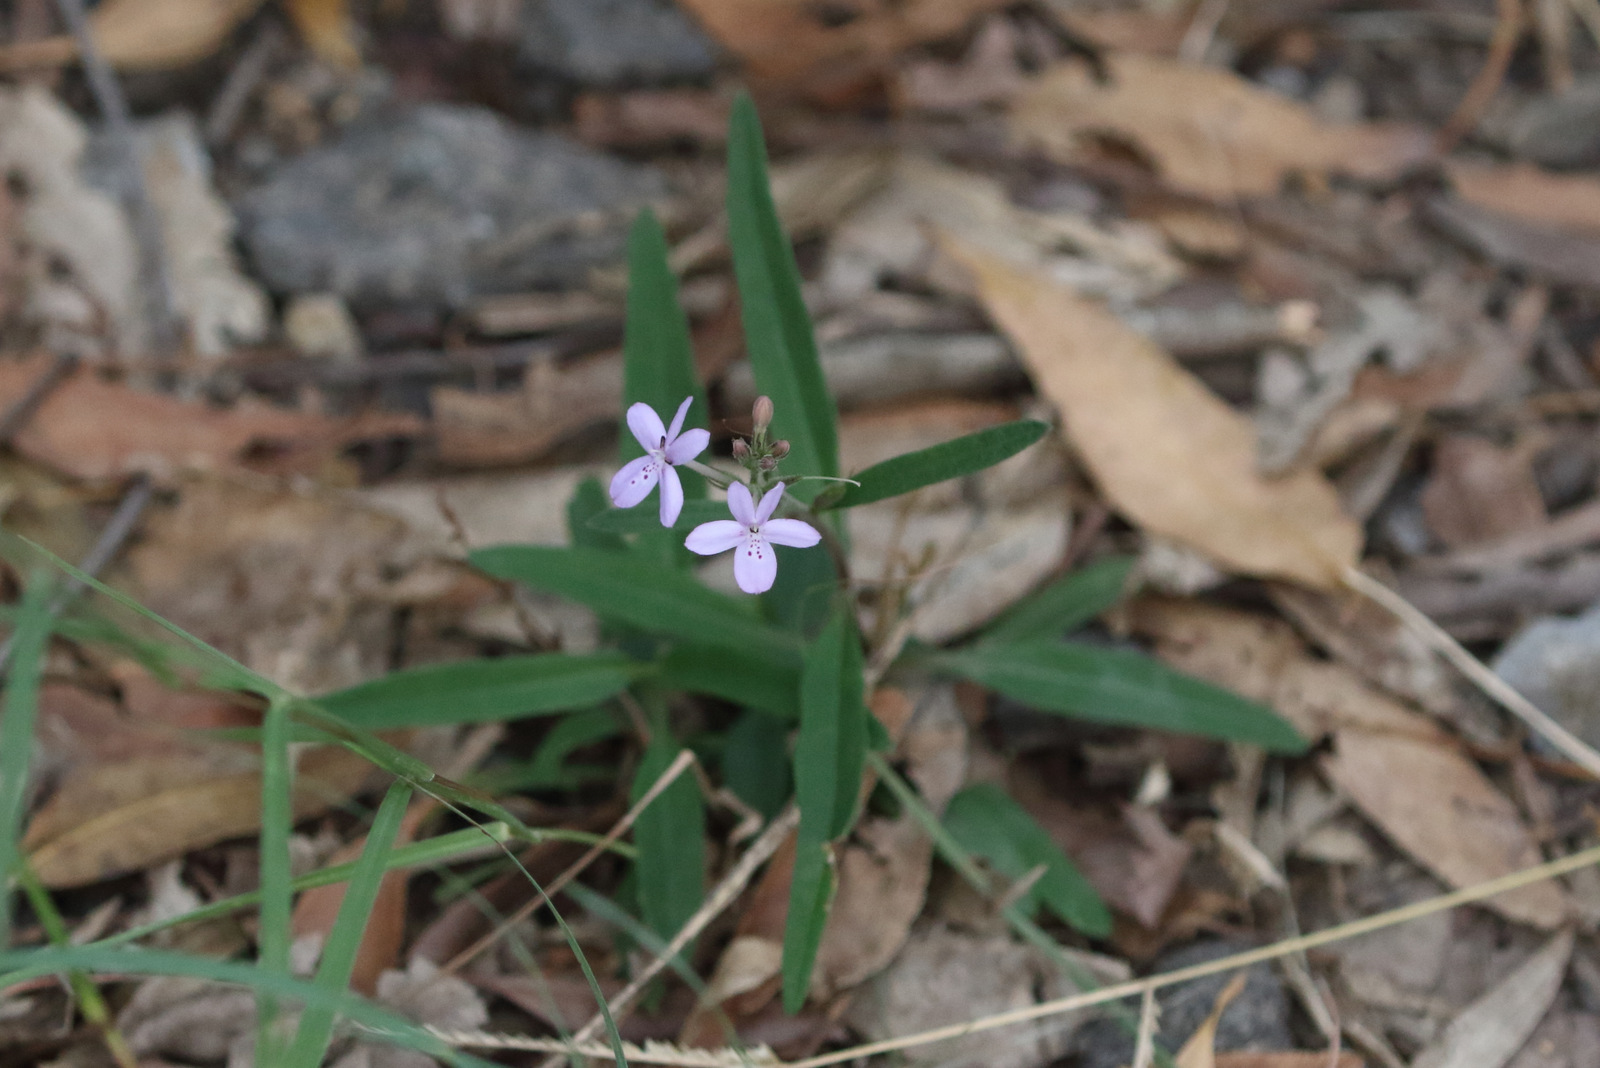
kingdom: Plantae
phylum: Tracheophyta
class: Magnoliopsida
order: Lamiales
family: Acanthaceae
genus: Pseuderanthemum
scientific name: Pseuderanthemum variabile
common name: Night and afternoon
